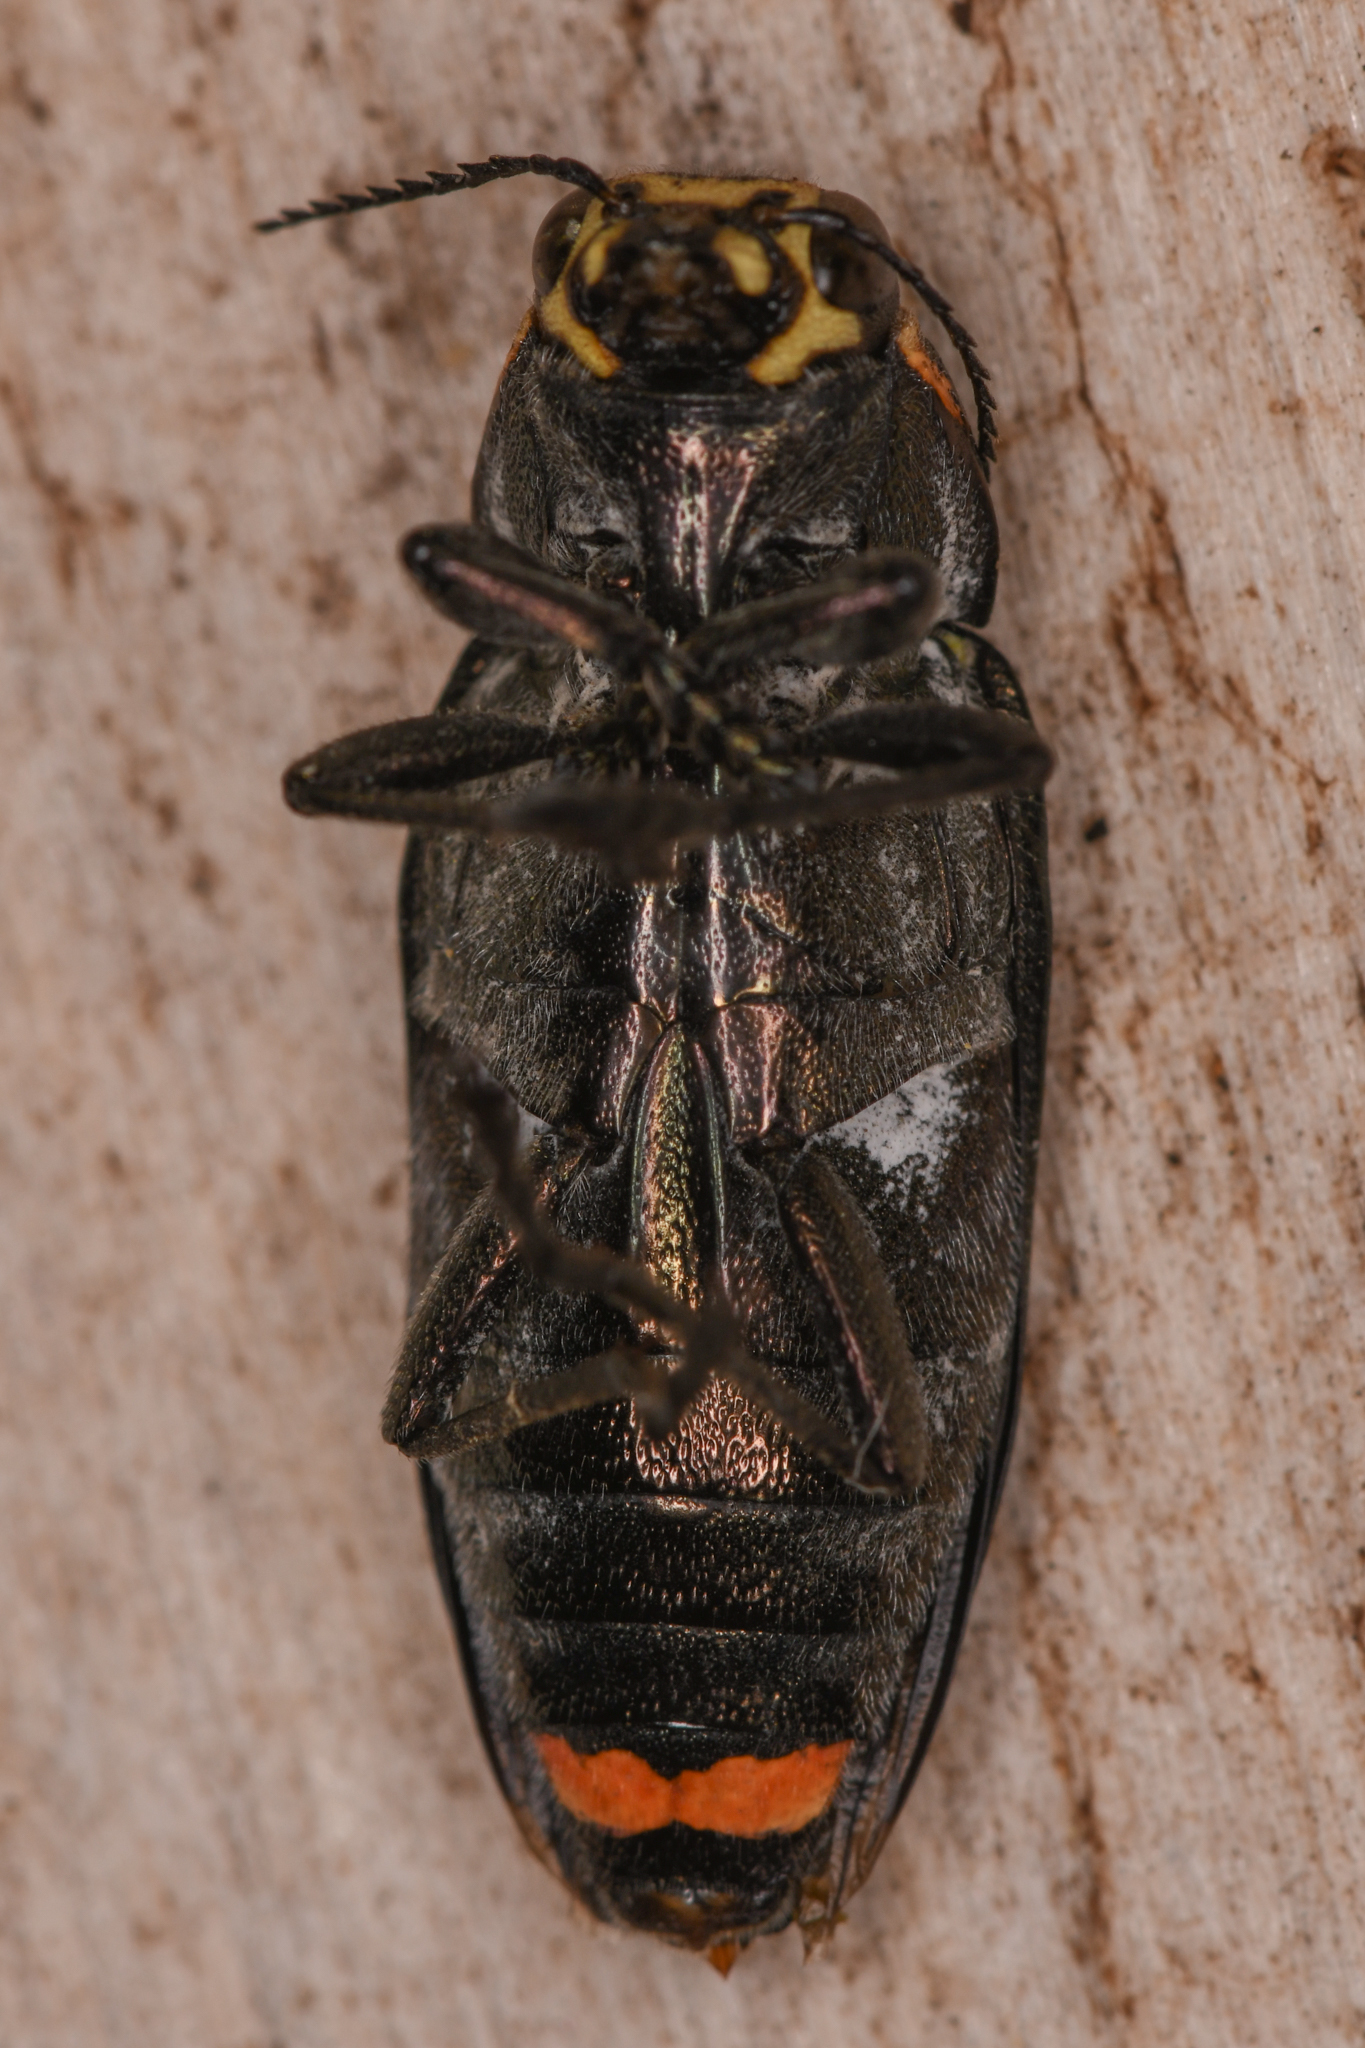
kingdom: Animalia
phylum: Arthropoda
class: Insecta
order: Coleoptera
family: Buprestidae
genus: Buprestis
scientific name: Buprestis lyrata
